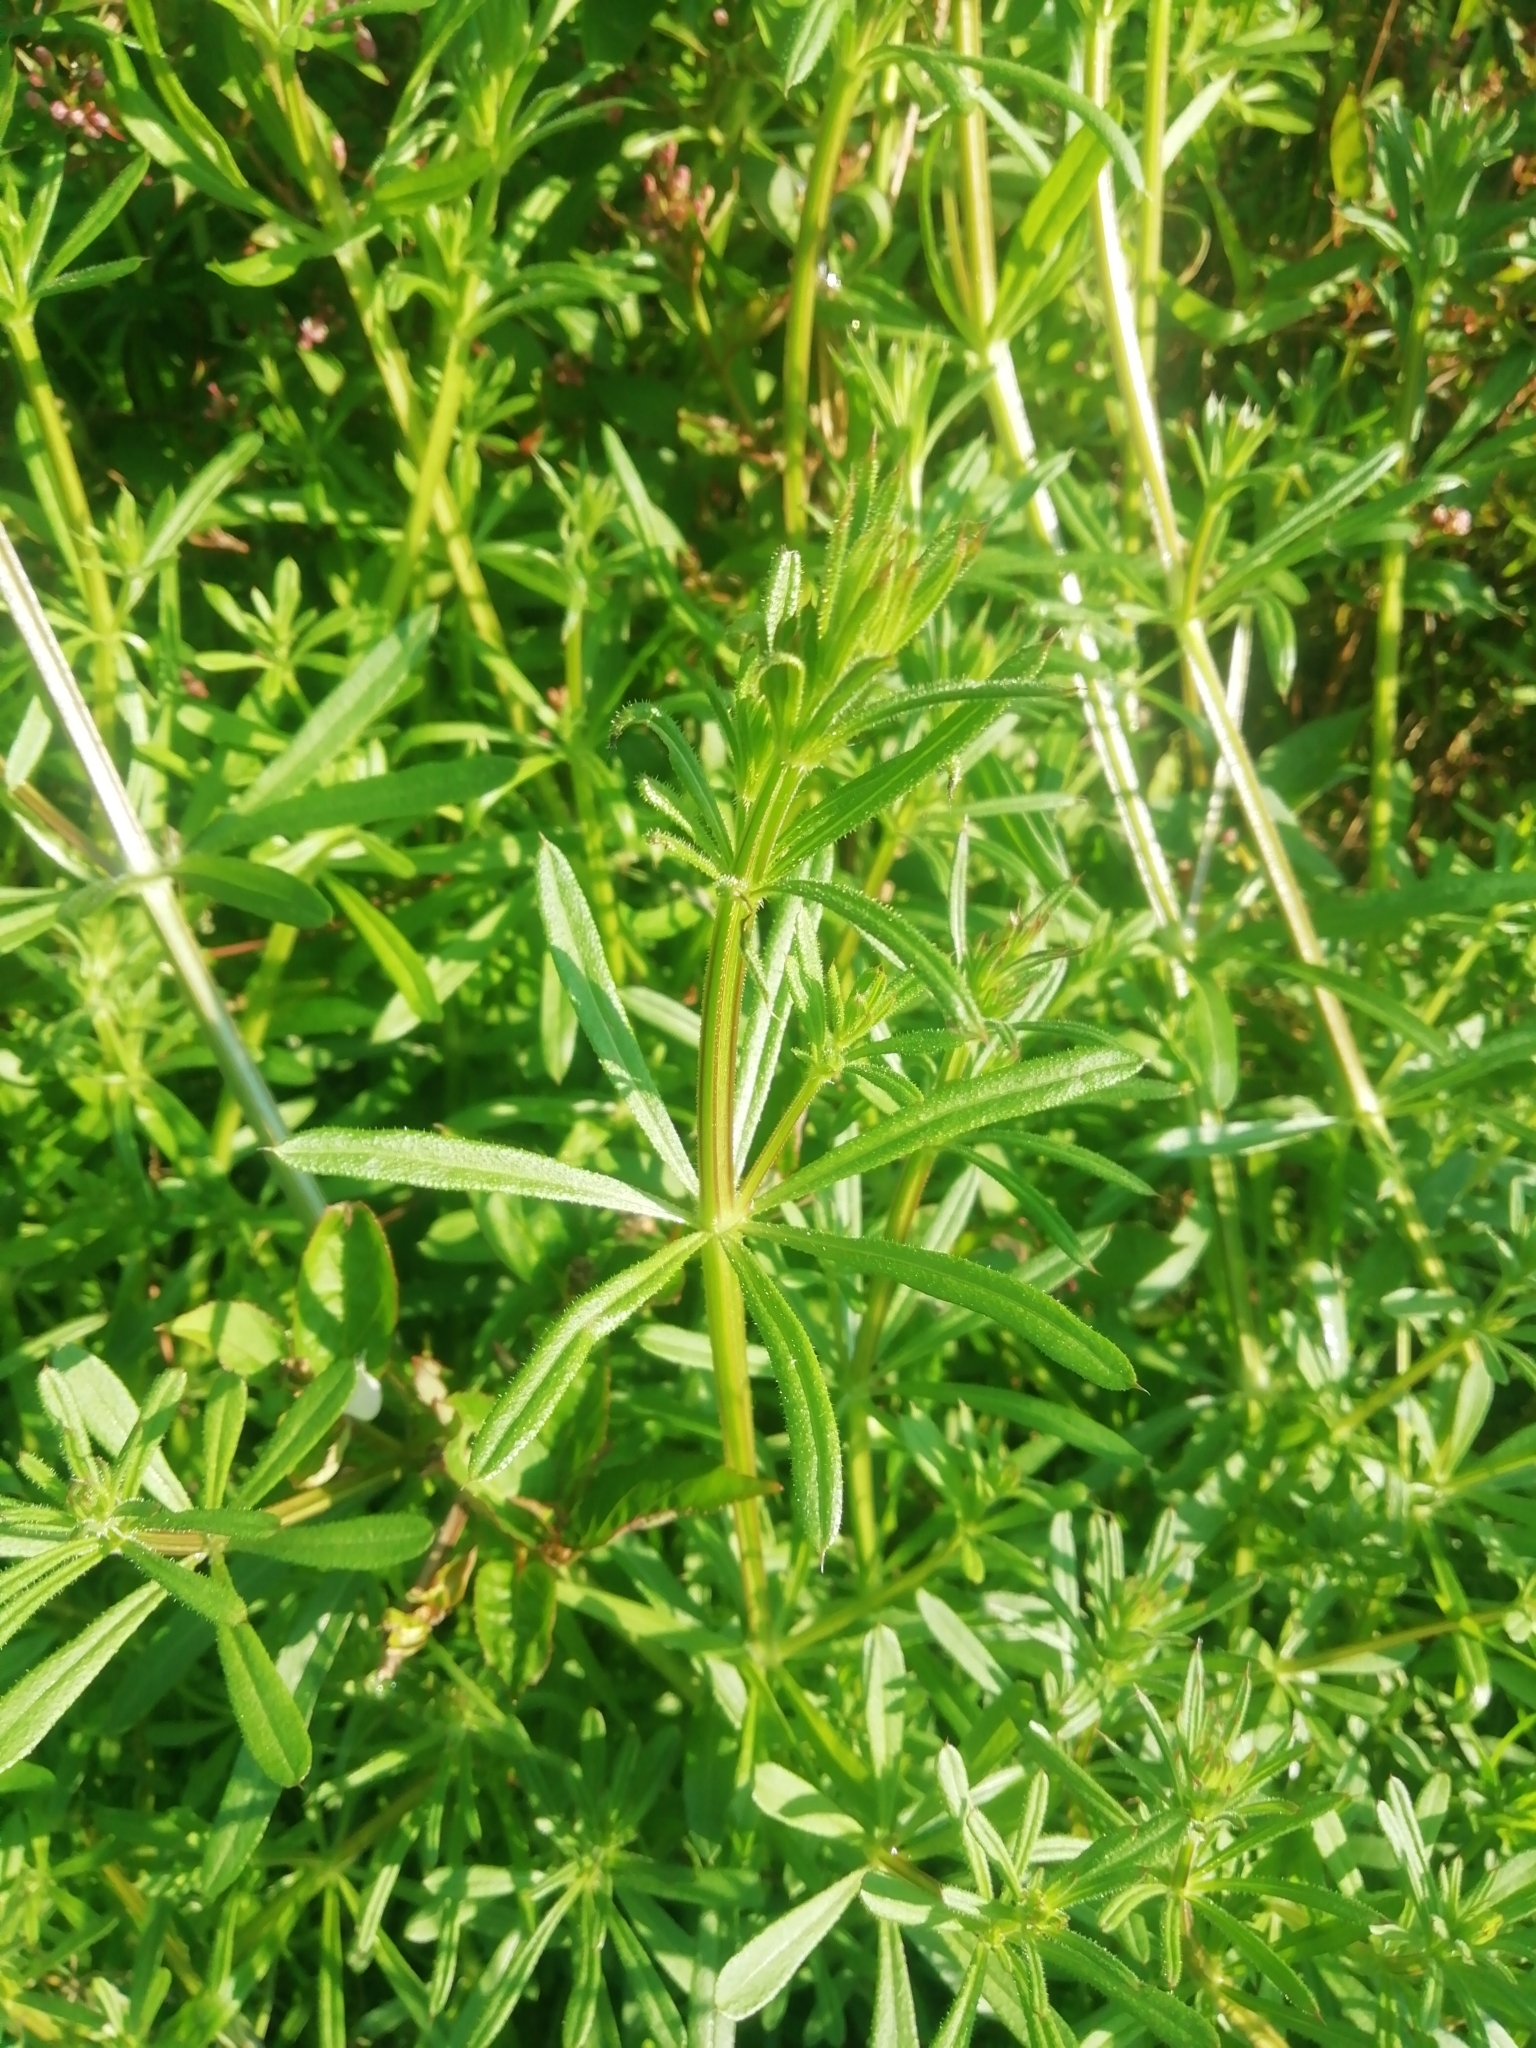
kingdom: Plantae
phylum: Tracheophyta
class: Magnoliopsida
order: Gentianales
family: Rubiaceae
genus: Galium
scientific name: Galium aparine
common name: Cleavers
